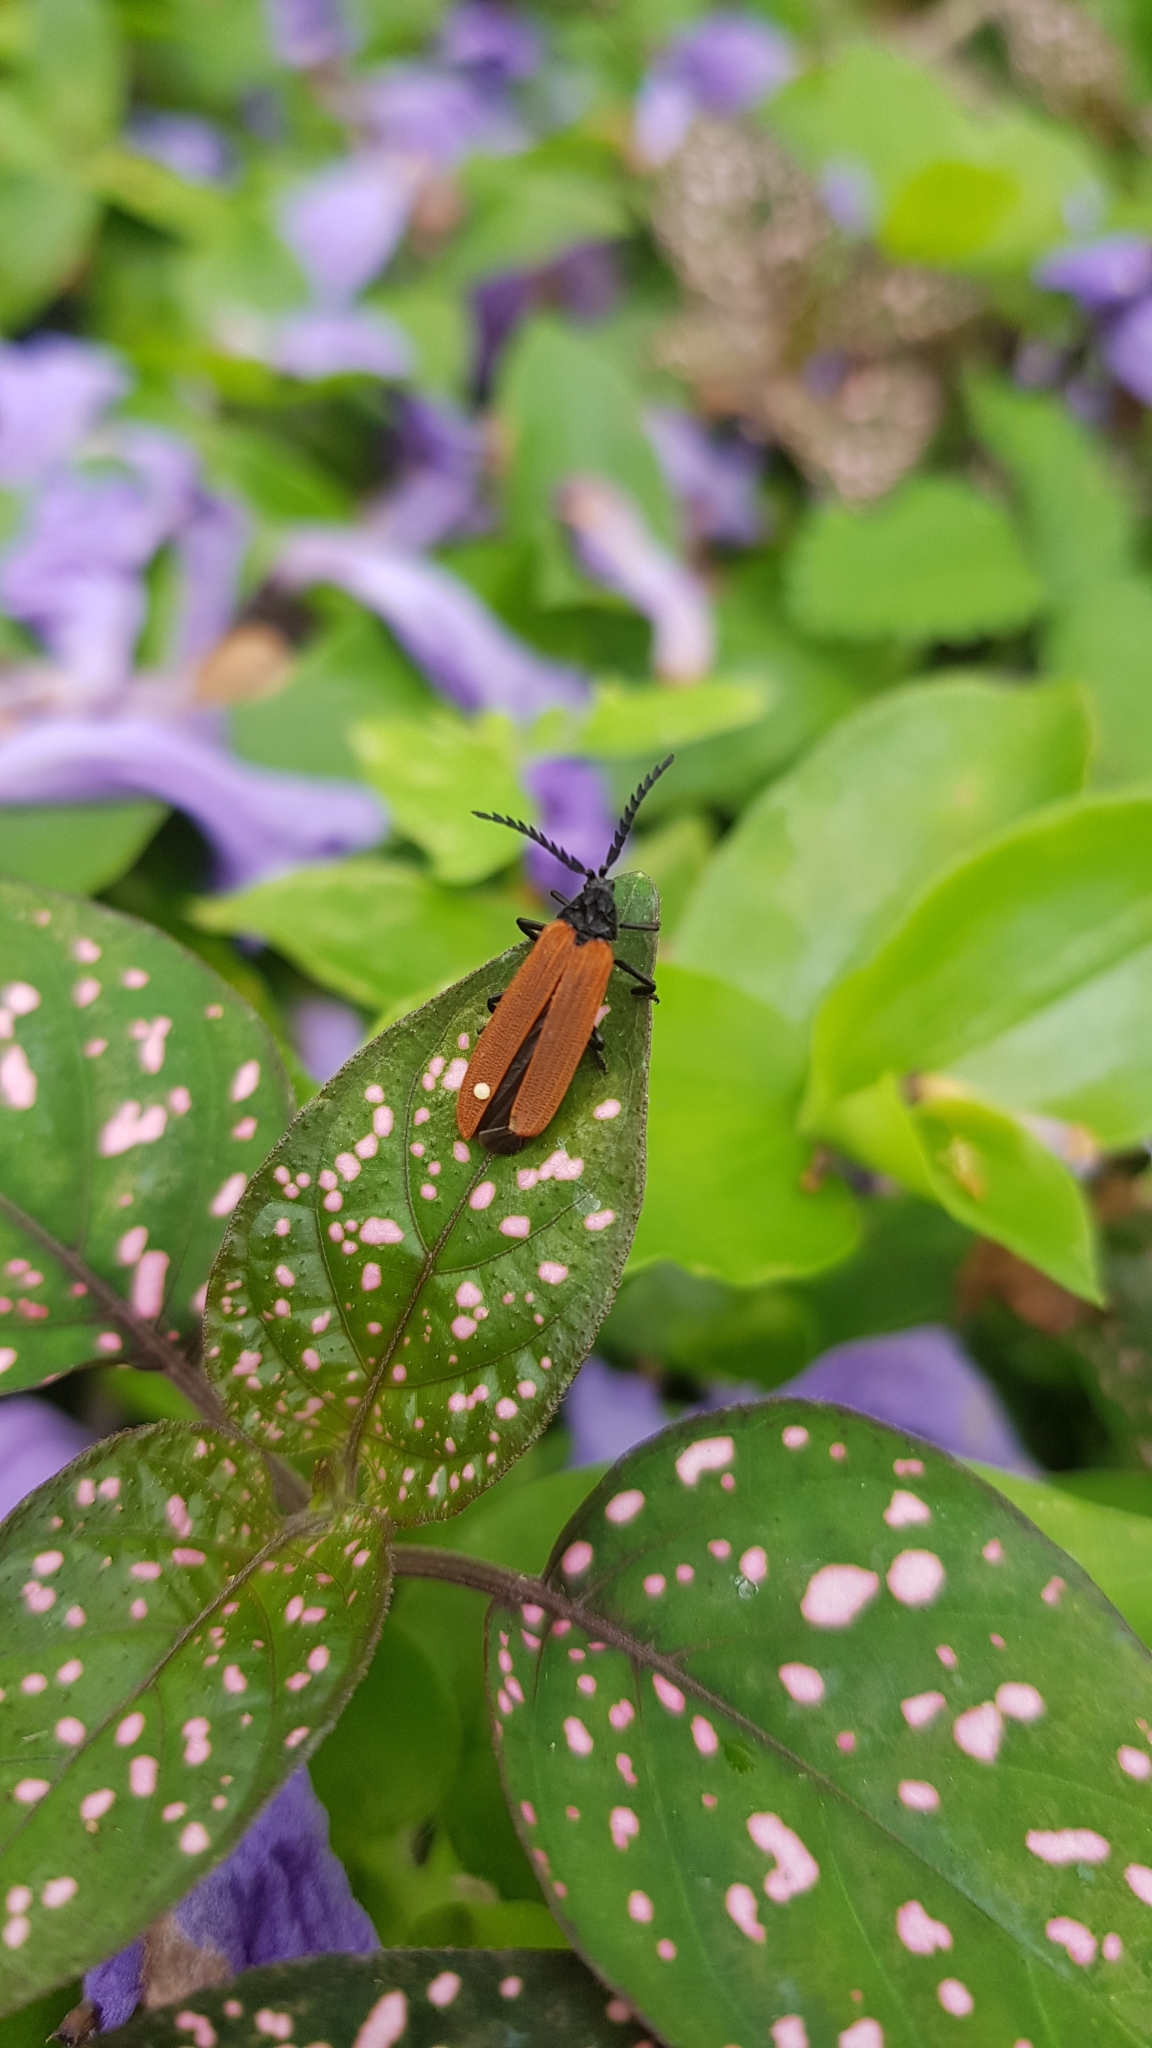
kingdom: Animalia
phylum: Arthropoda
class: Insecta
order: Coleoptera
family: Lycidae
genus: Porrostoma
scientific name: Porrostoma rhipidium
